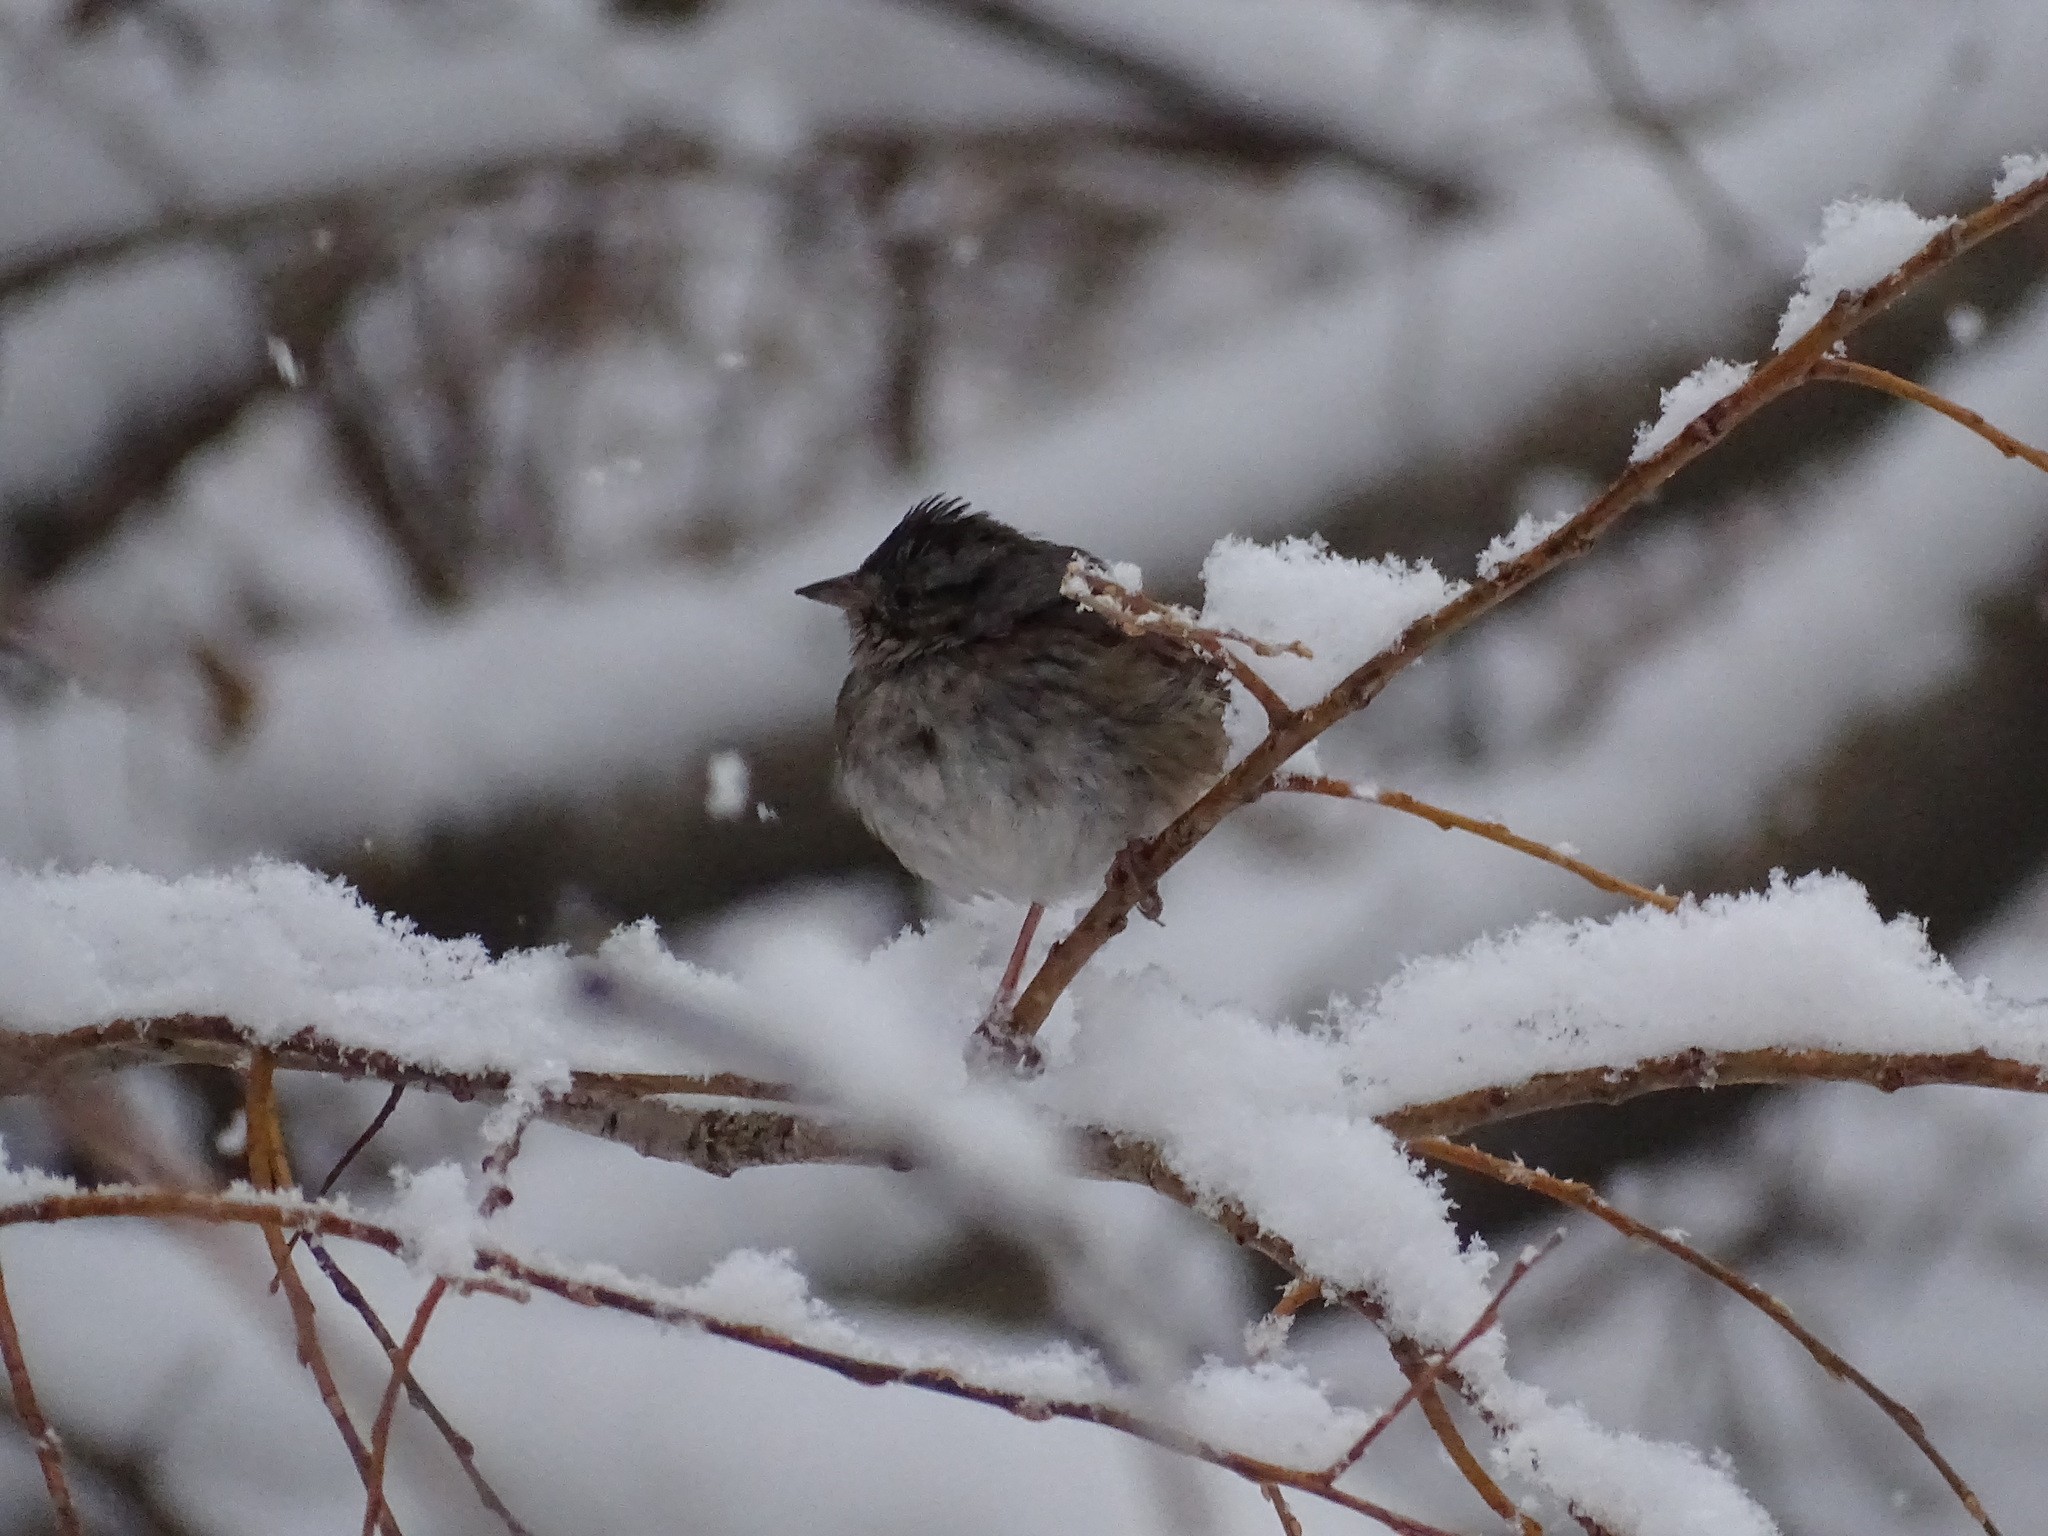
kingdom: Animalia
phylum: Chordata
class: Aves
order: Passeriformes
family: Passerellidae
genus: Melospiza
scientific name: Melospiza georgiana
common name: Swamp sparrow
